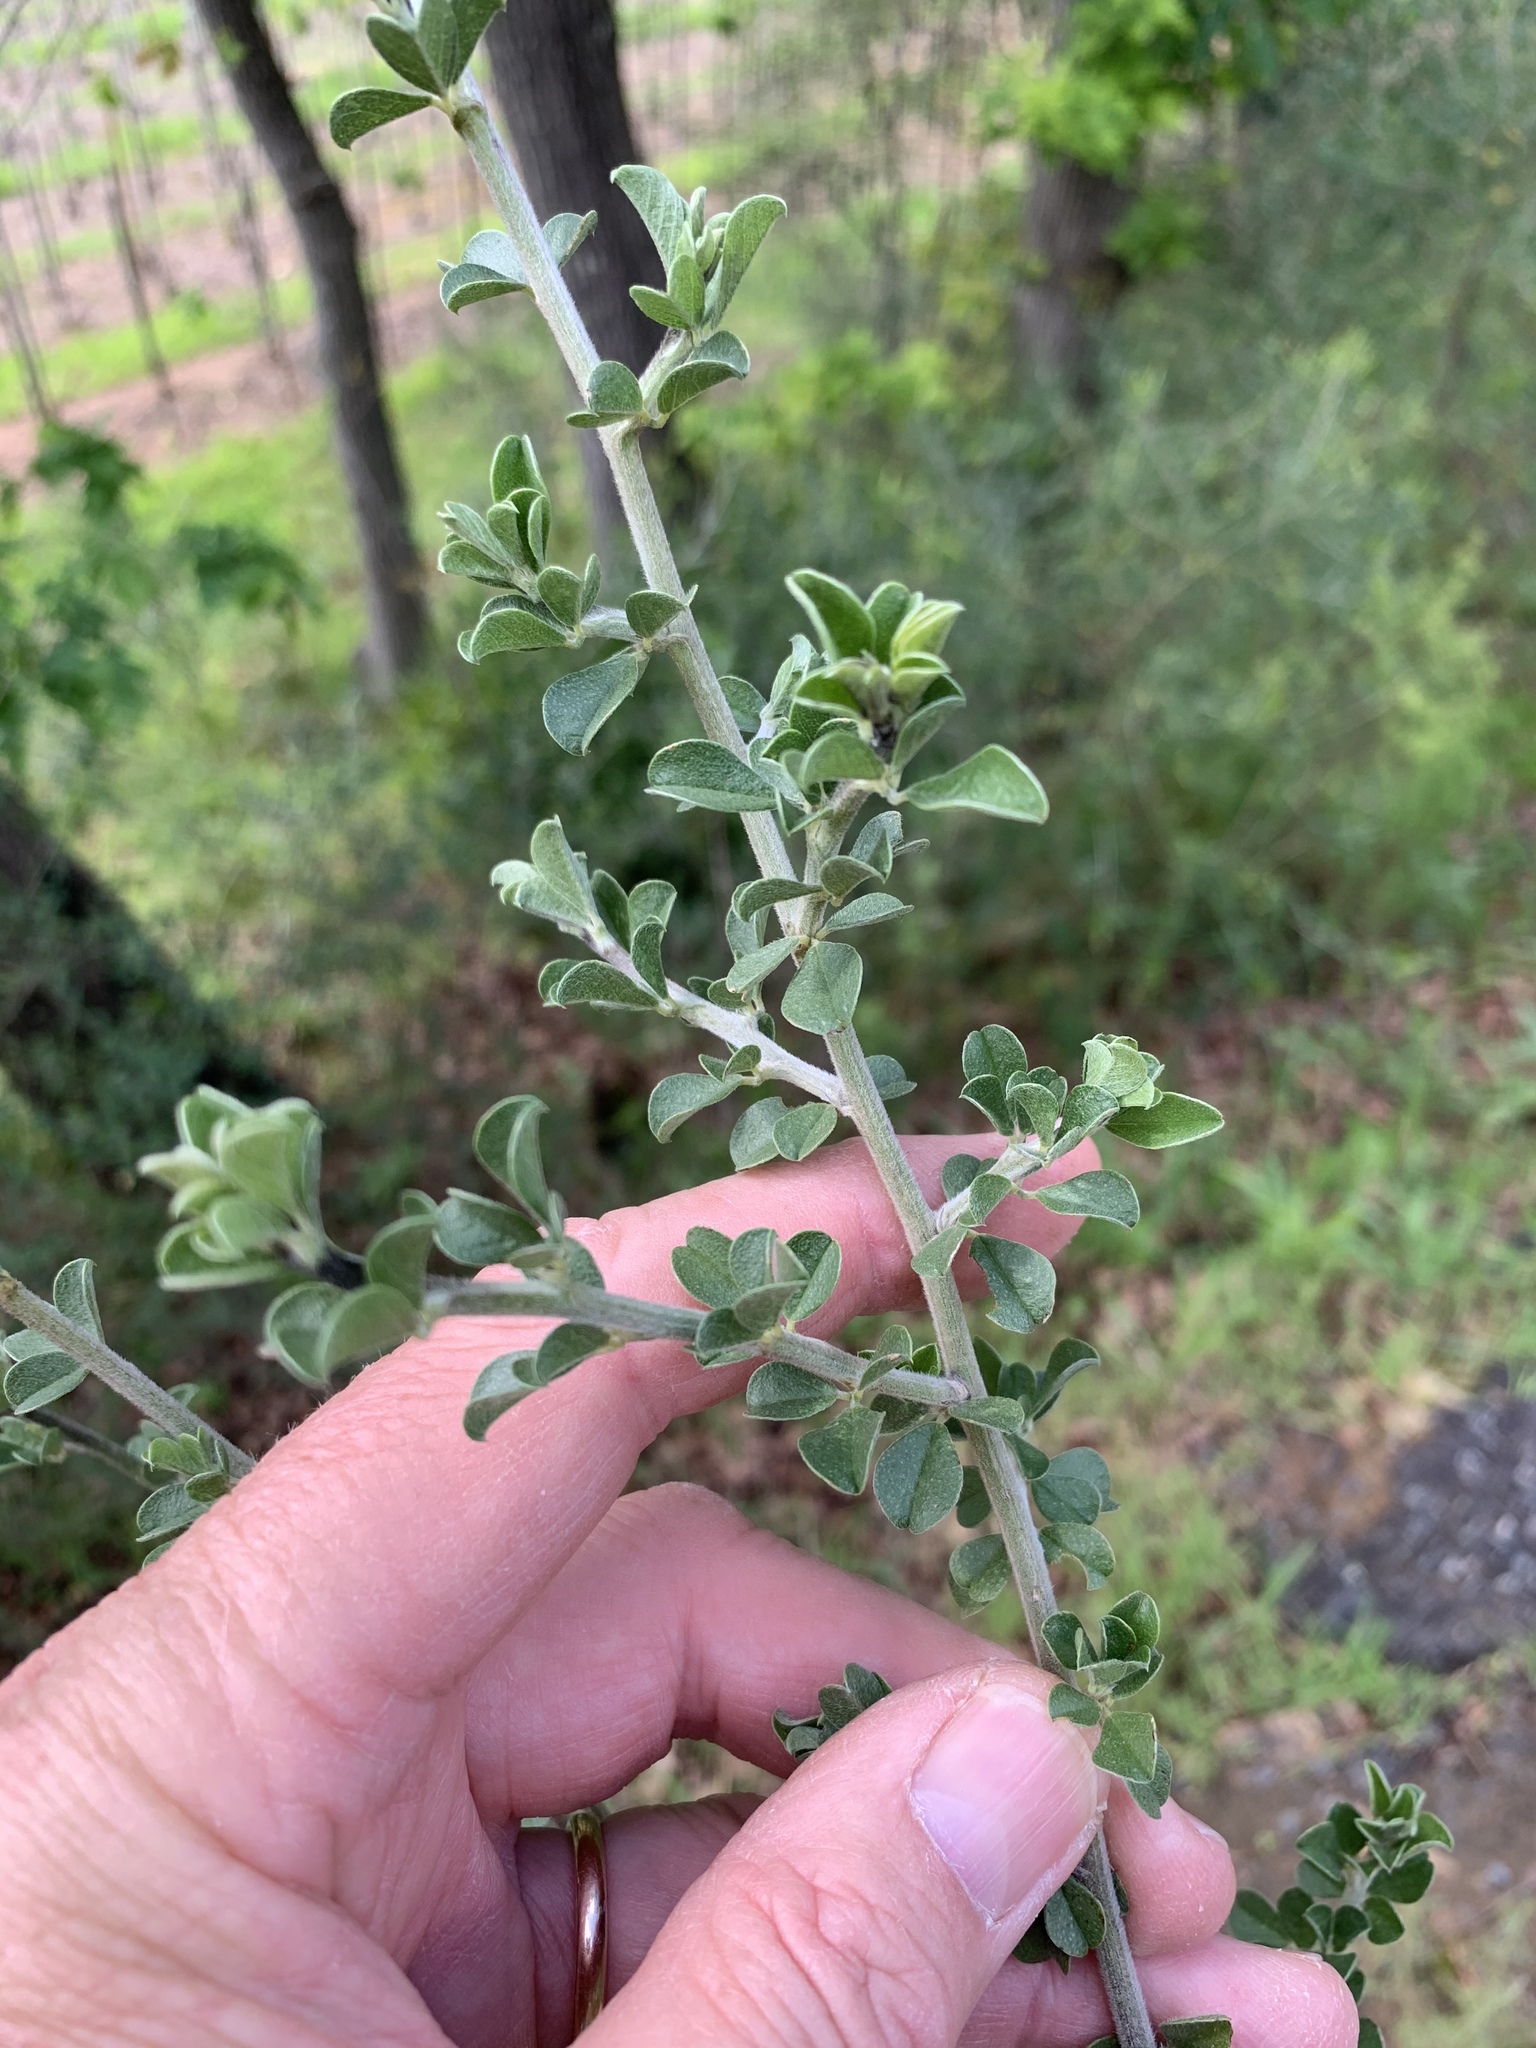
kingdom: Plantae
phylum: Tracheophyta
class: Magnoliopsida
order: Fabales
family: Fabaceae
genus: Psoralea
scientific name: Psoralea hirta
